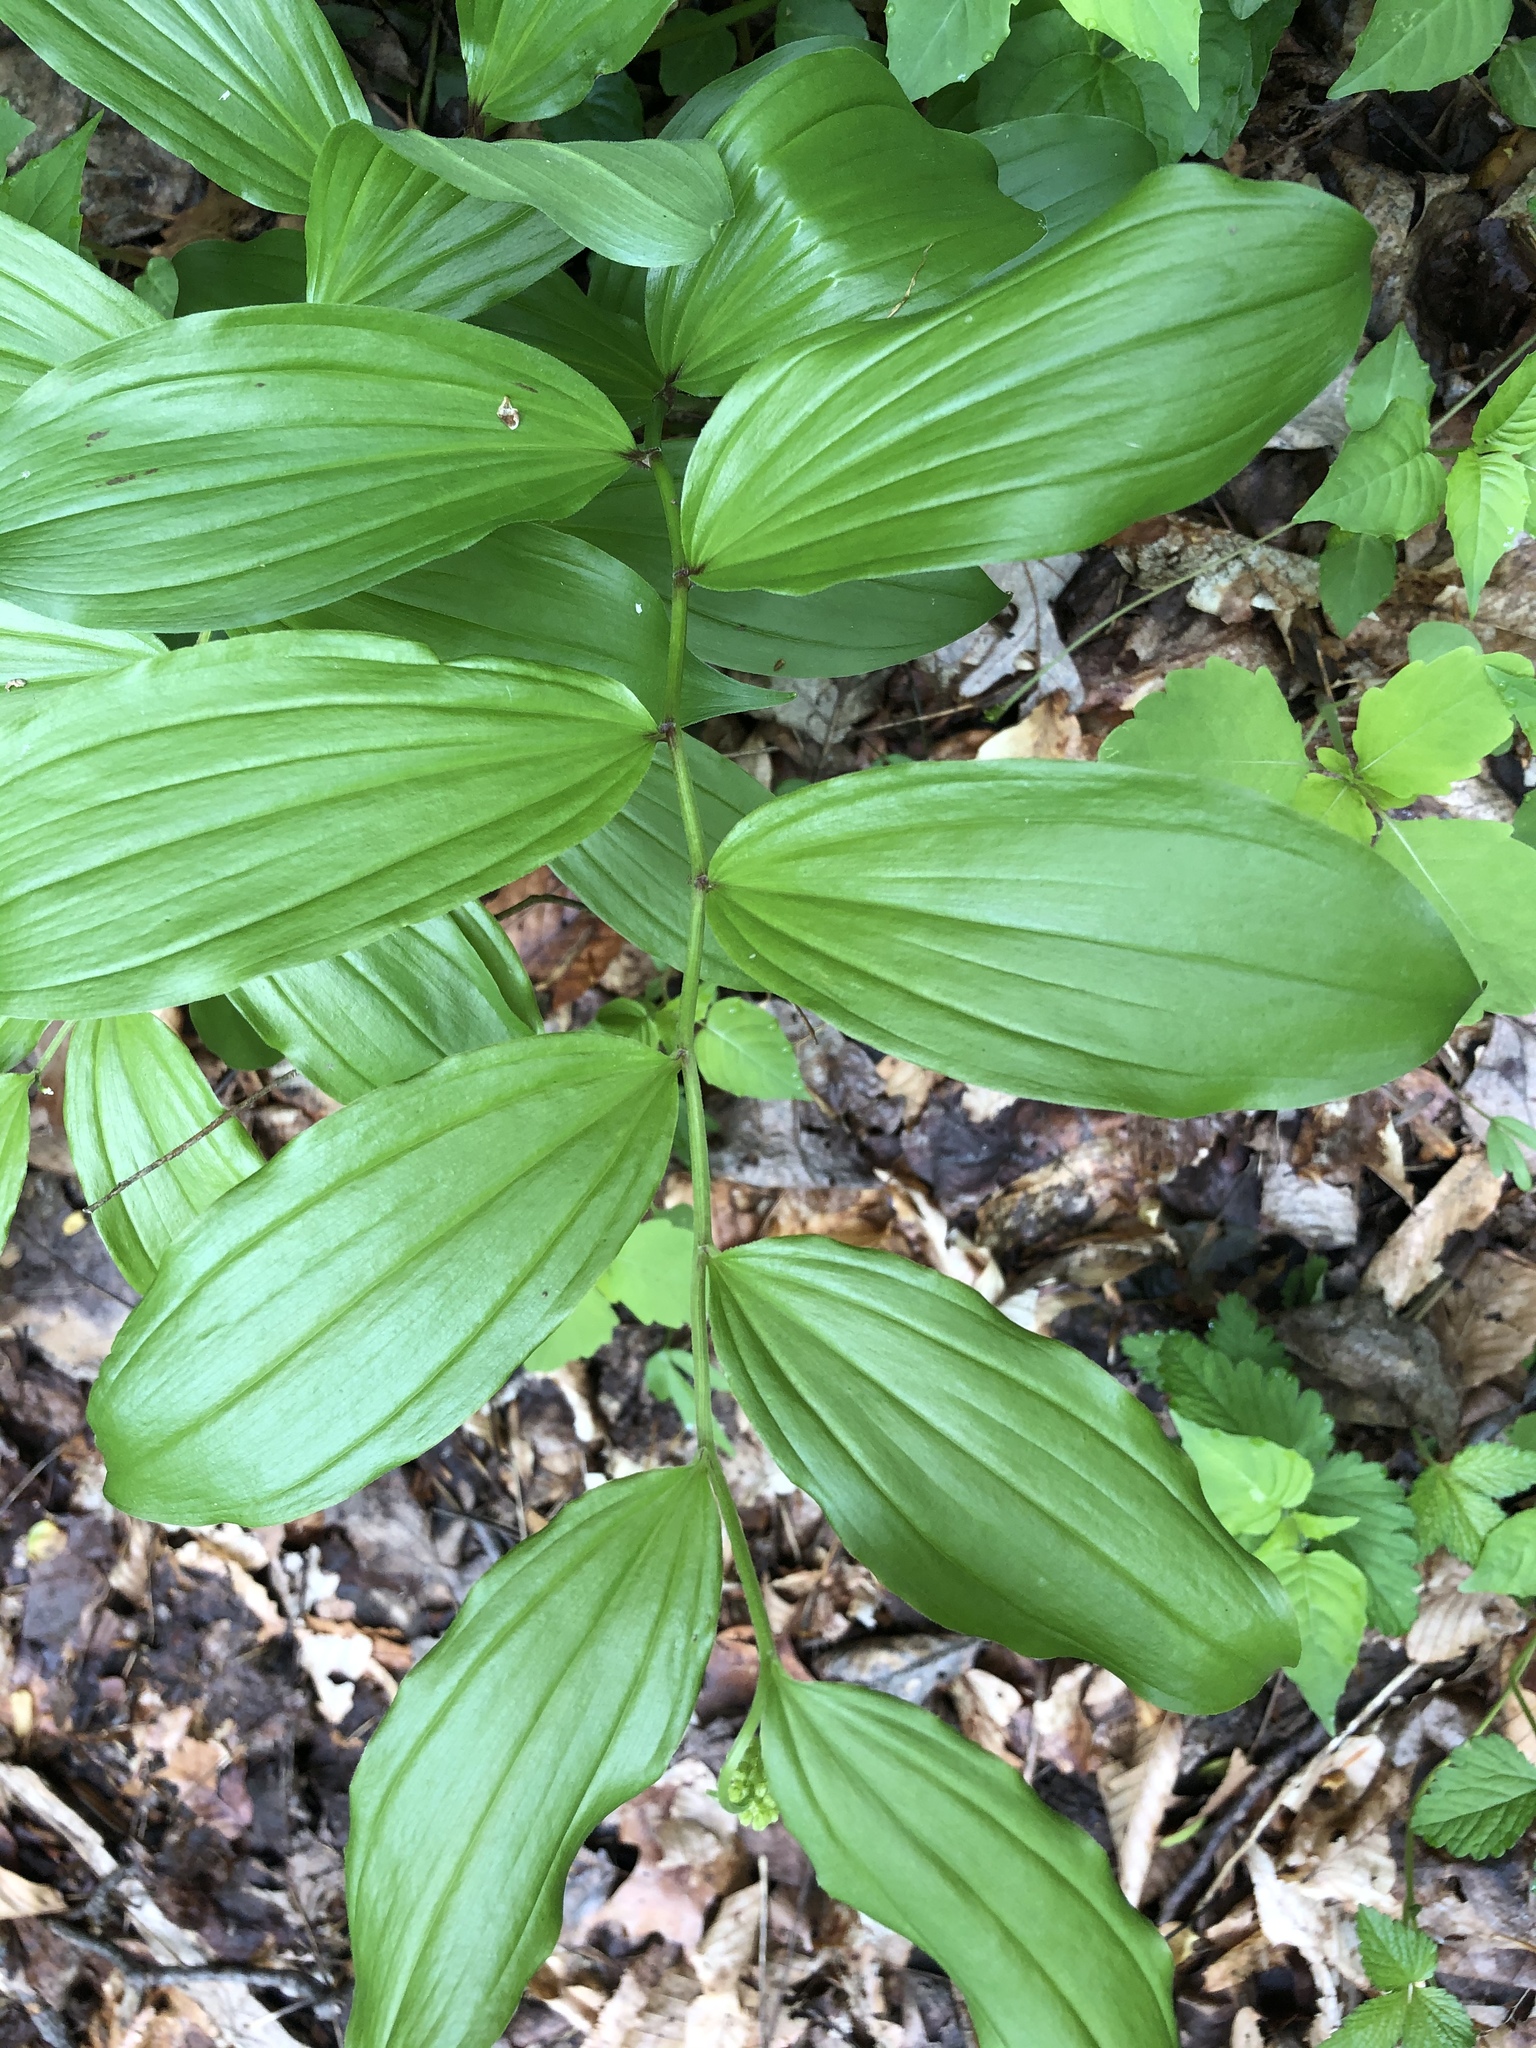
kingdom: Plantae
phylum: Tracheophyta
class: Liliopsida
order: Asparagales
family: Asparagaceae
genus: Maianthemum
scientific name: Maianthemum racemosum
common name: False spikenard
